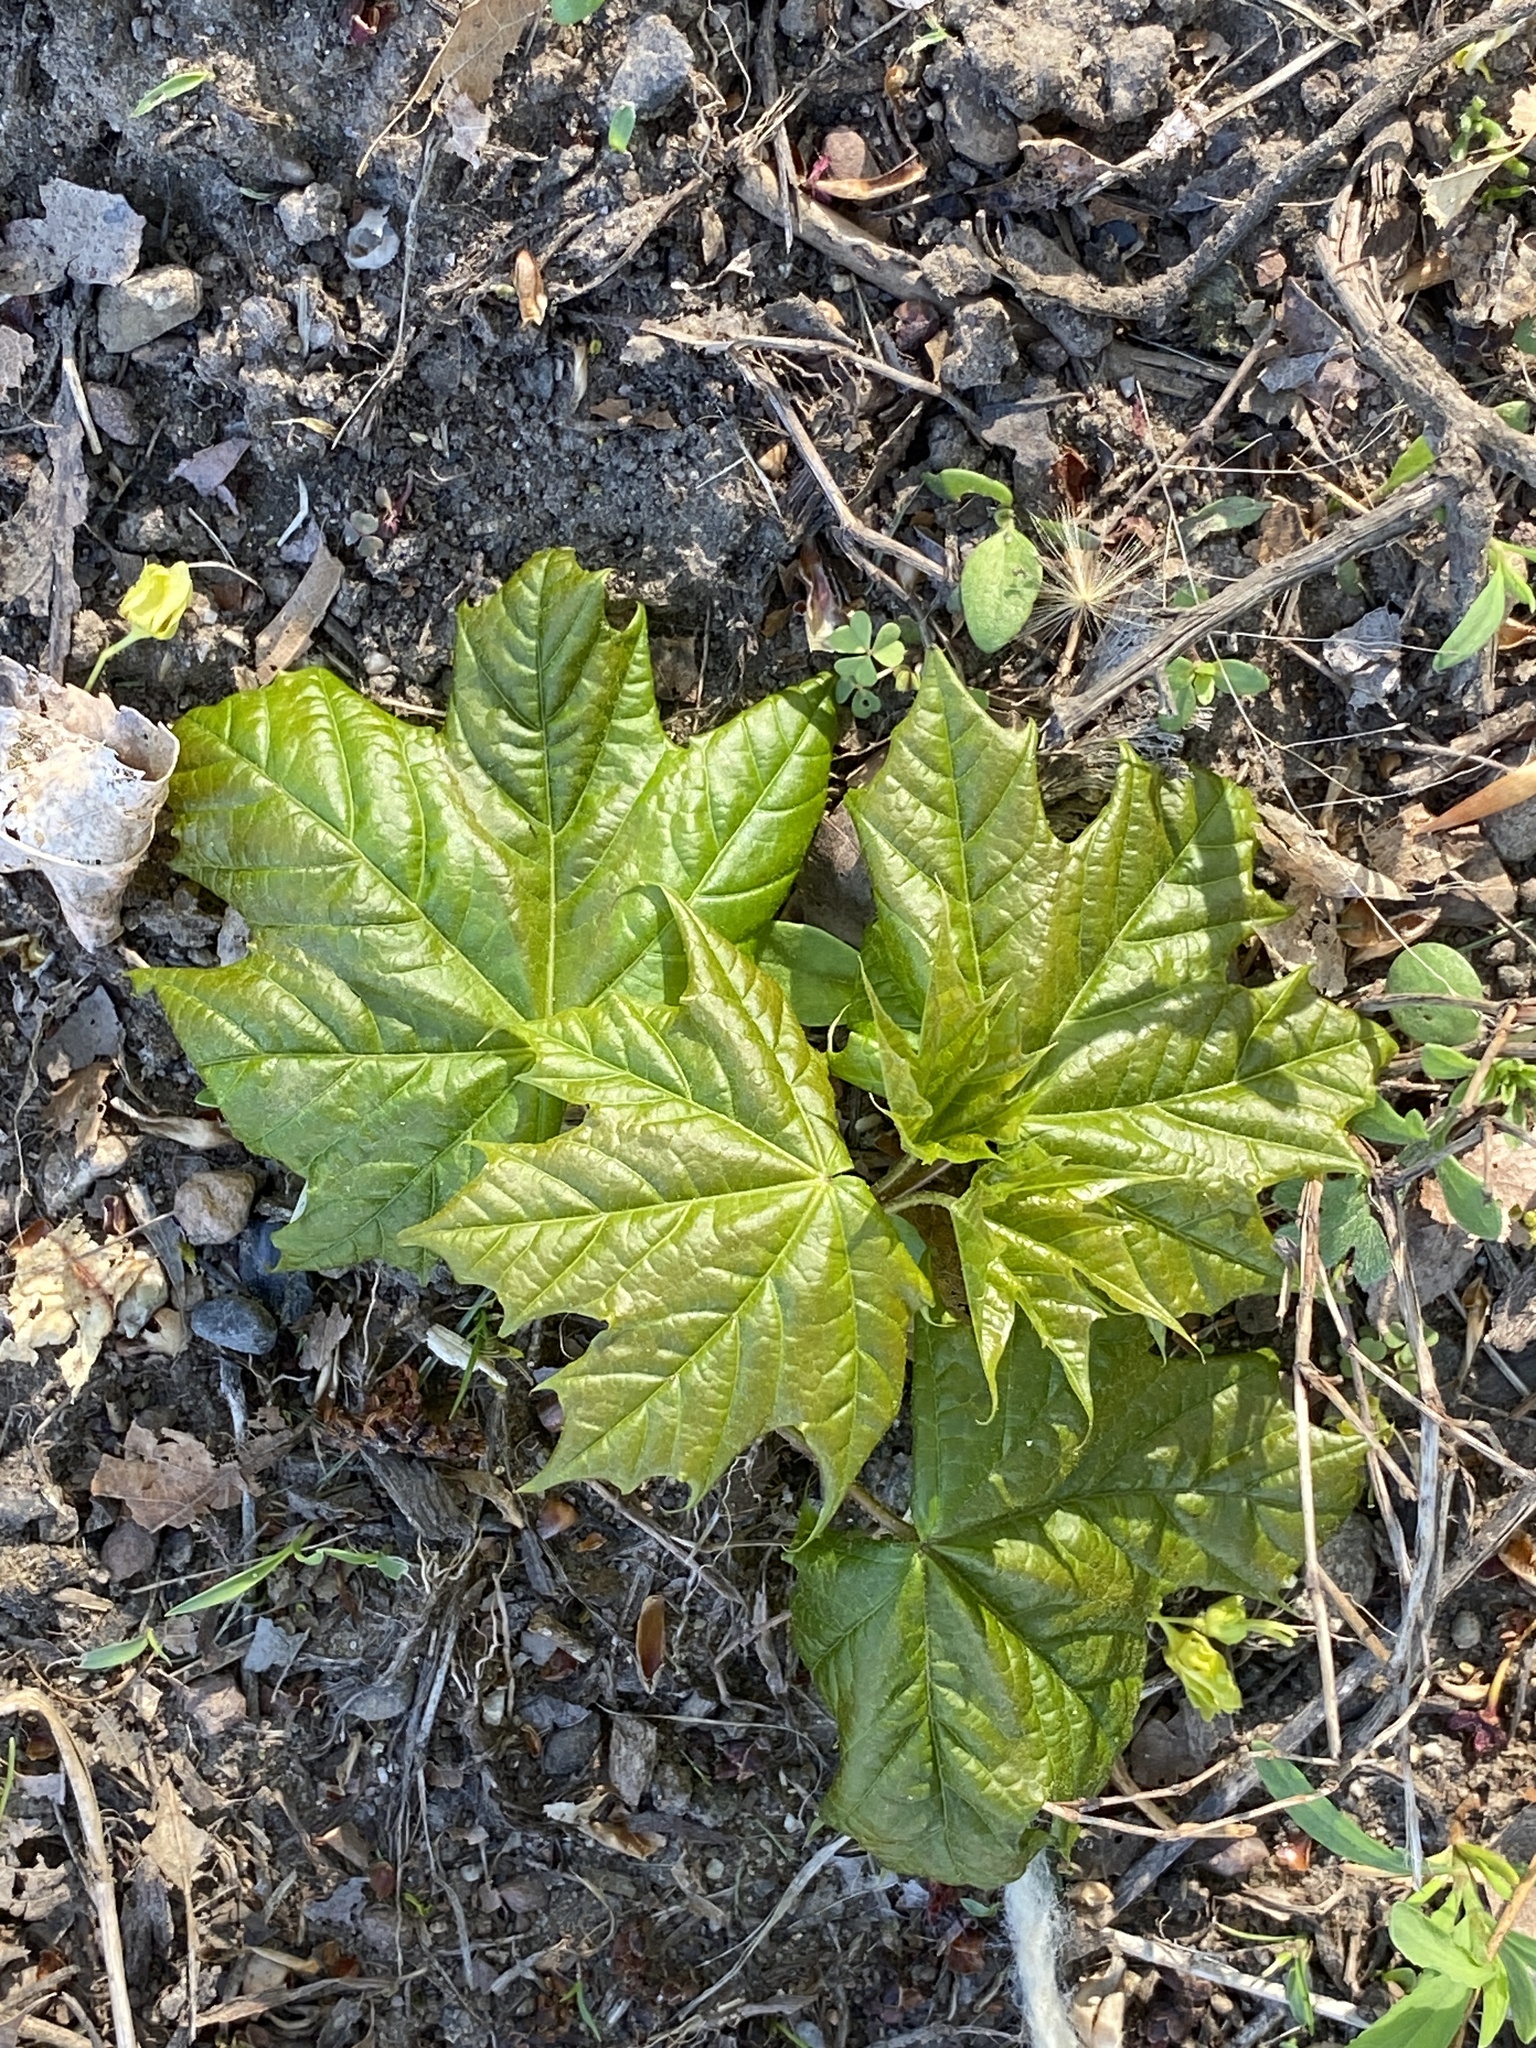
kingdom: Plantae
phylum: Tracheophyta
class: Magnoliopsida
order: Sapindales
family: Sapindaceae
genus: Acer
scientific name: Acer platanoides
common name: Norway maple
